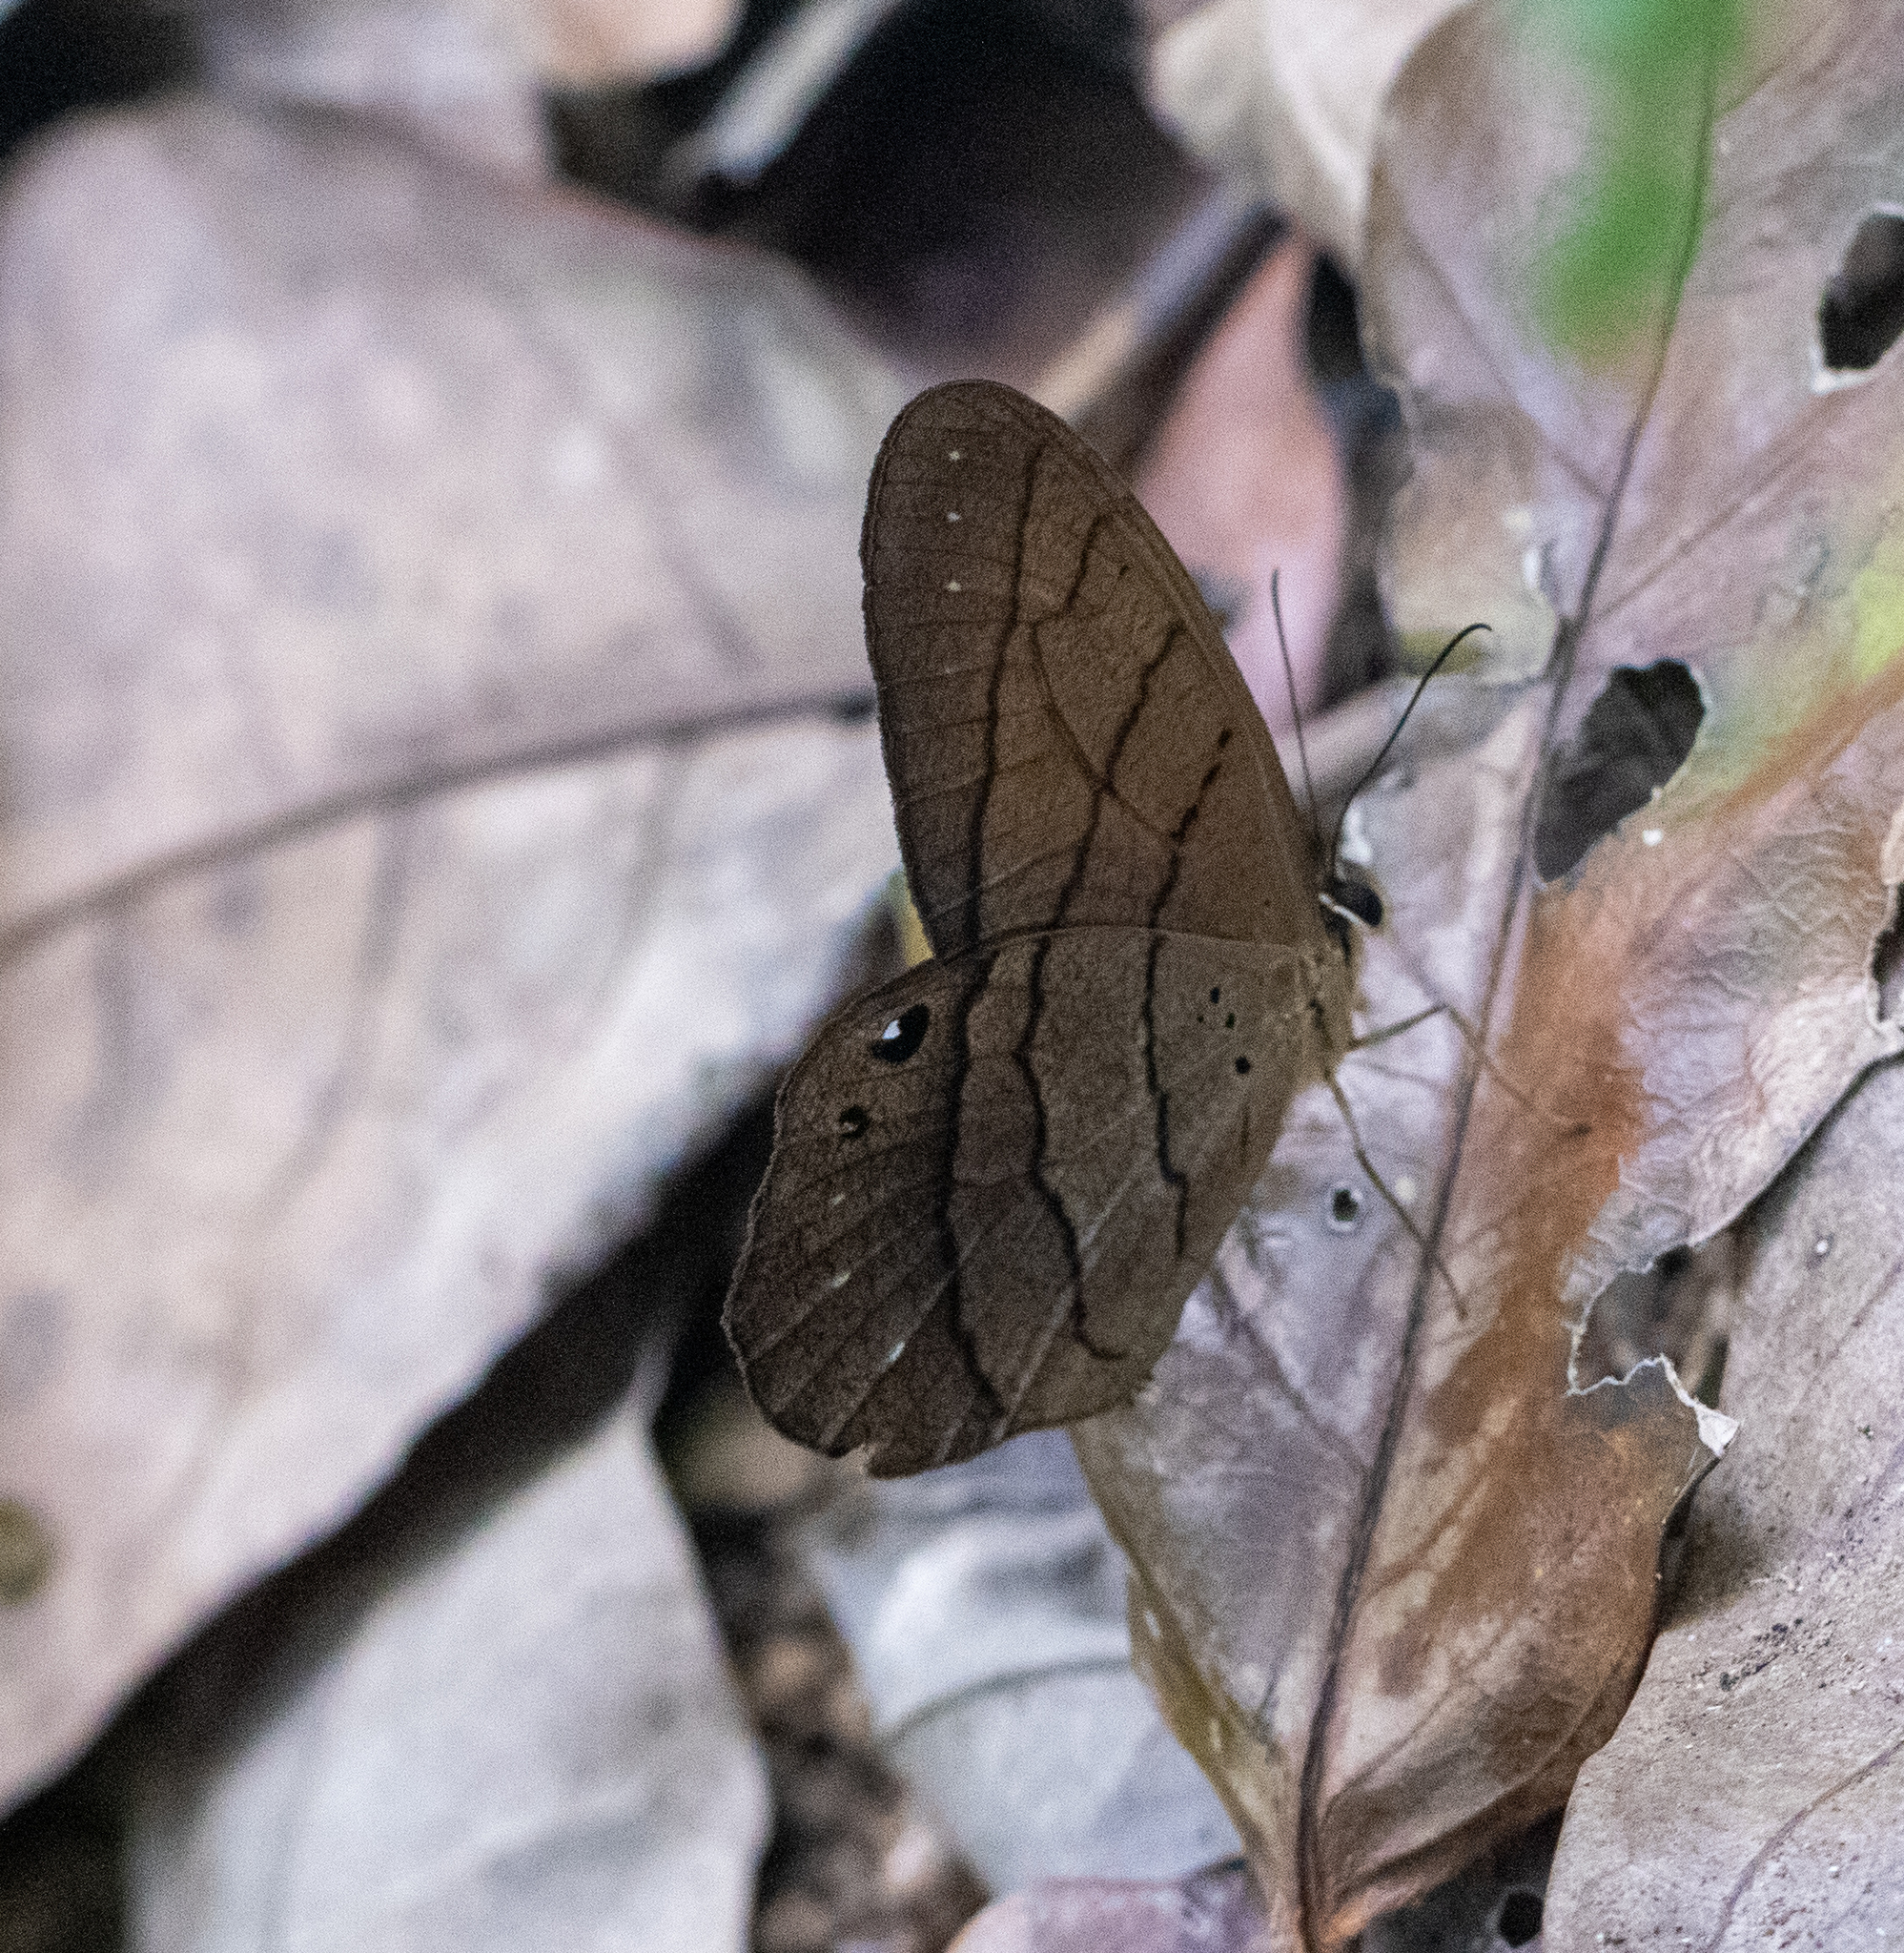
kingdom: Animalia
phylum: Arthropoda
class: Insecta
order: Lepidoptera
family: Nymphalidae
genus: Pierella
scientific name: Pierella luna
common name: Moon satyr
